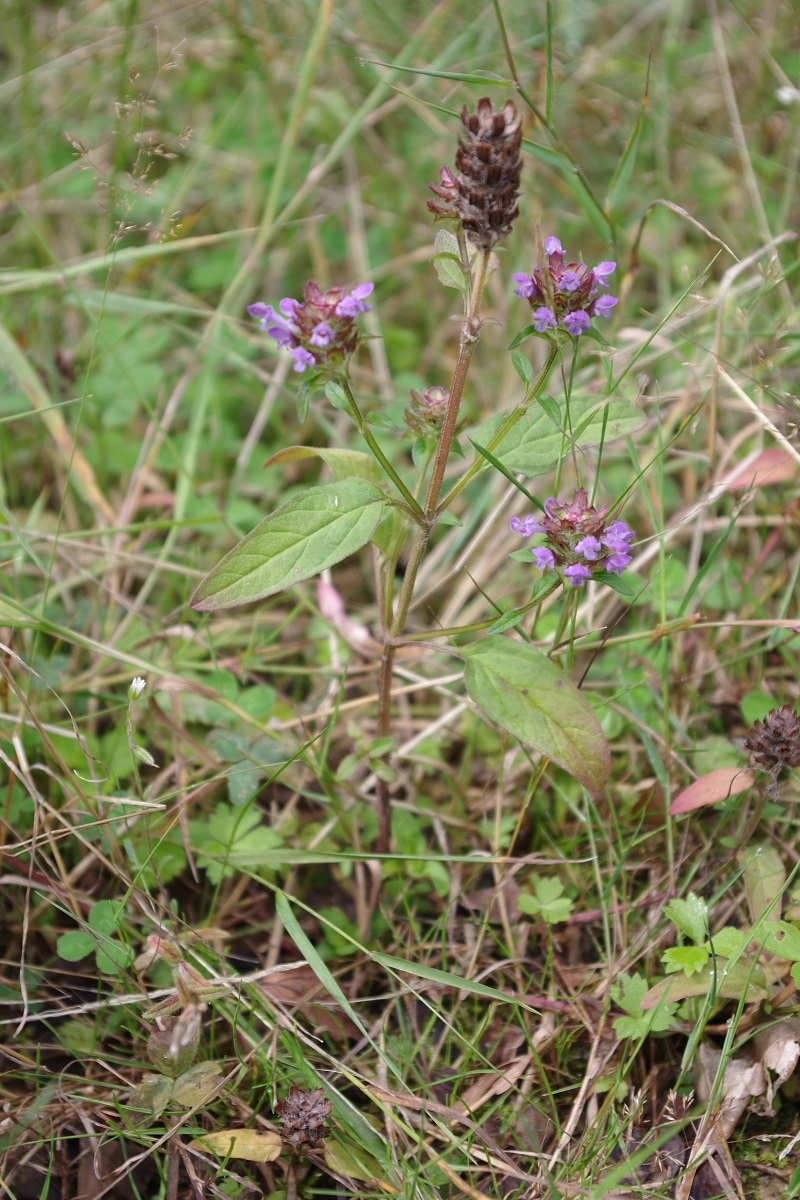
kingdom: Plantae
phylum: Tracheophyta
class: Magnoliopsida
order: Lamiales
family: Lamiaceae
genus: Prunella
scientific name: Prunella vulgaris
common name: Heal-all
